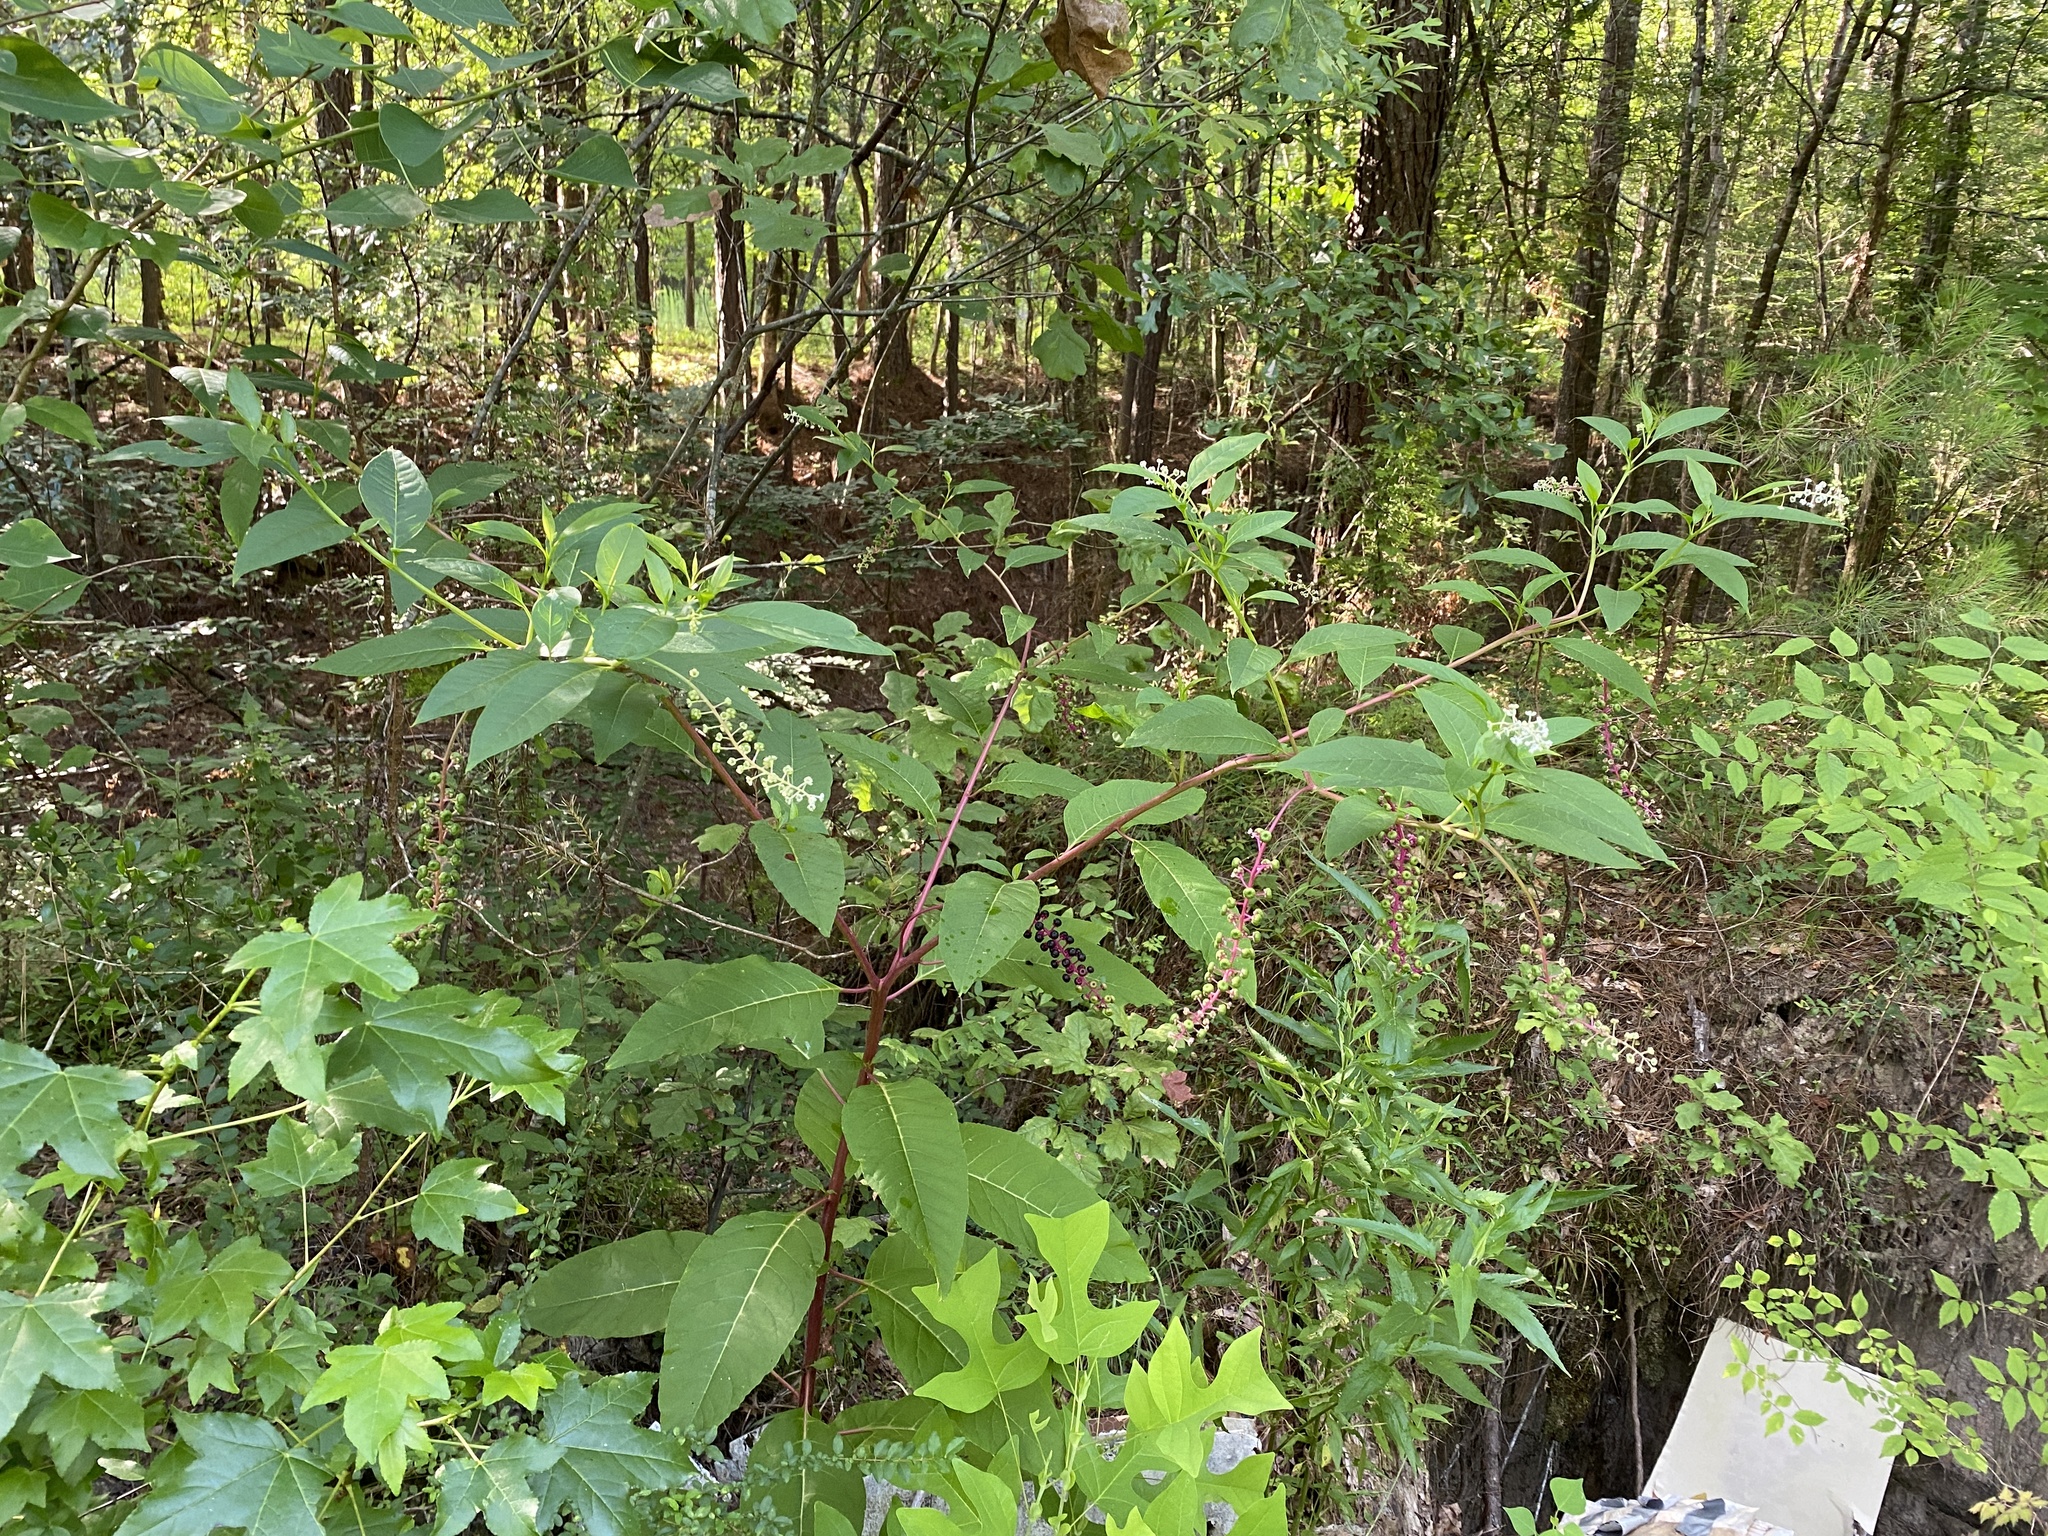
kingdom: Plantae
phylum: Tracheophyta
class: Magnoliopsida
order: Caryophyllales
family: Phytolaccaceae
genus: Phytolacca
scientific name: Phytolacca americana
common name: American pokeweed
